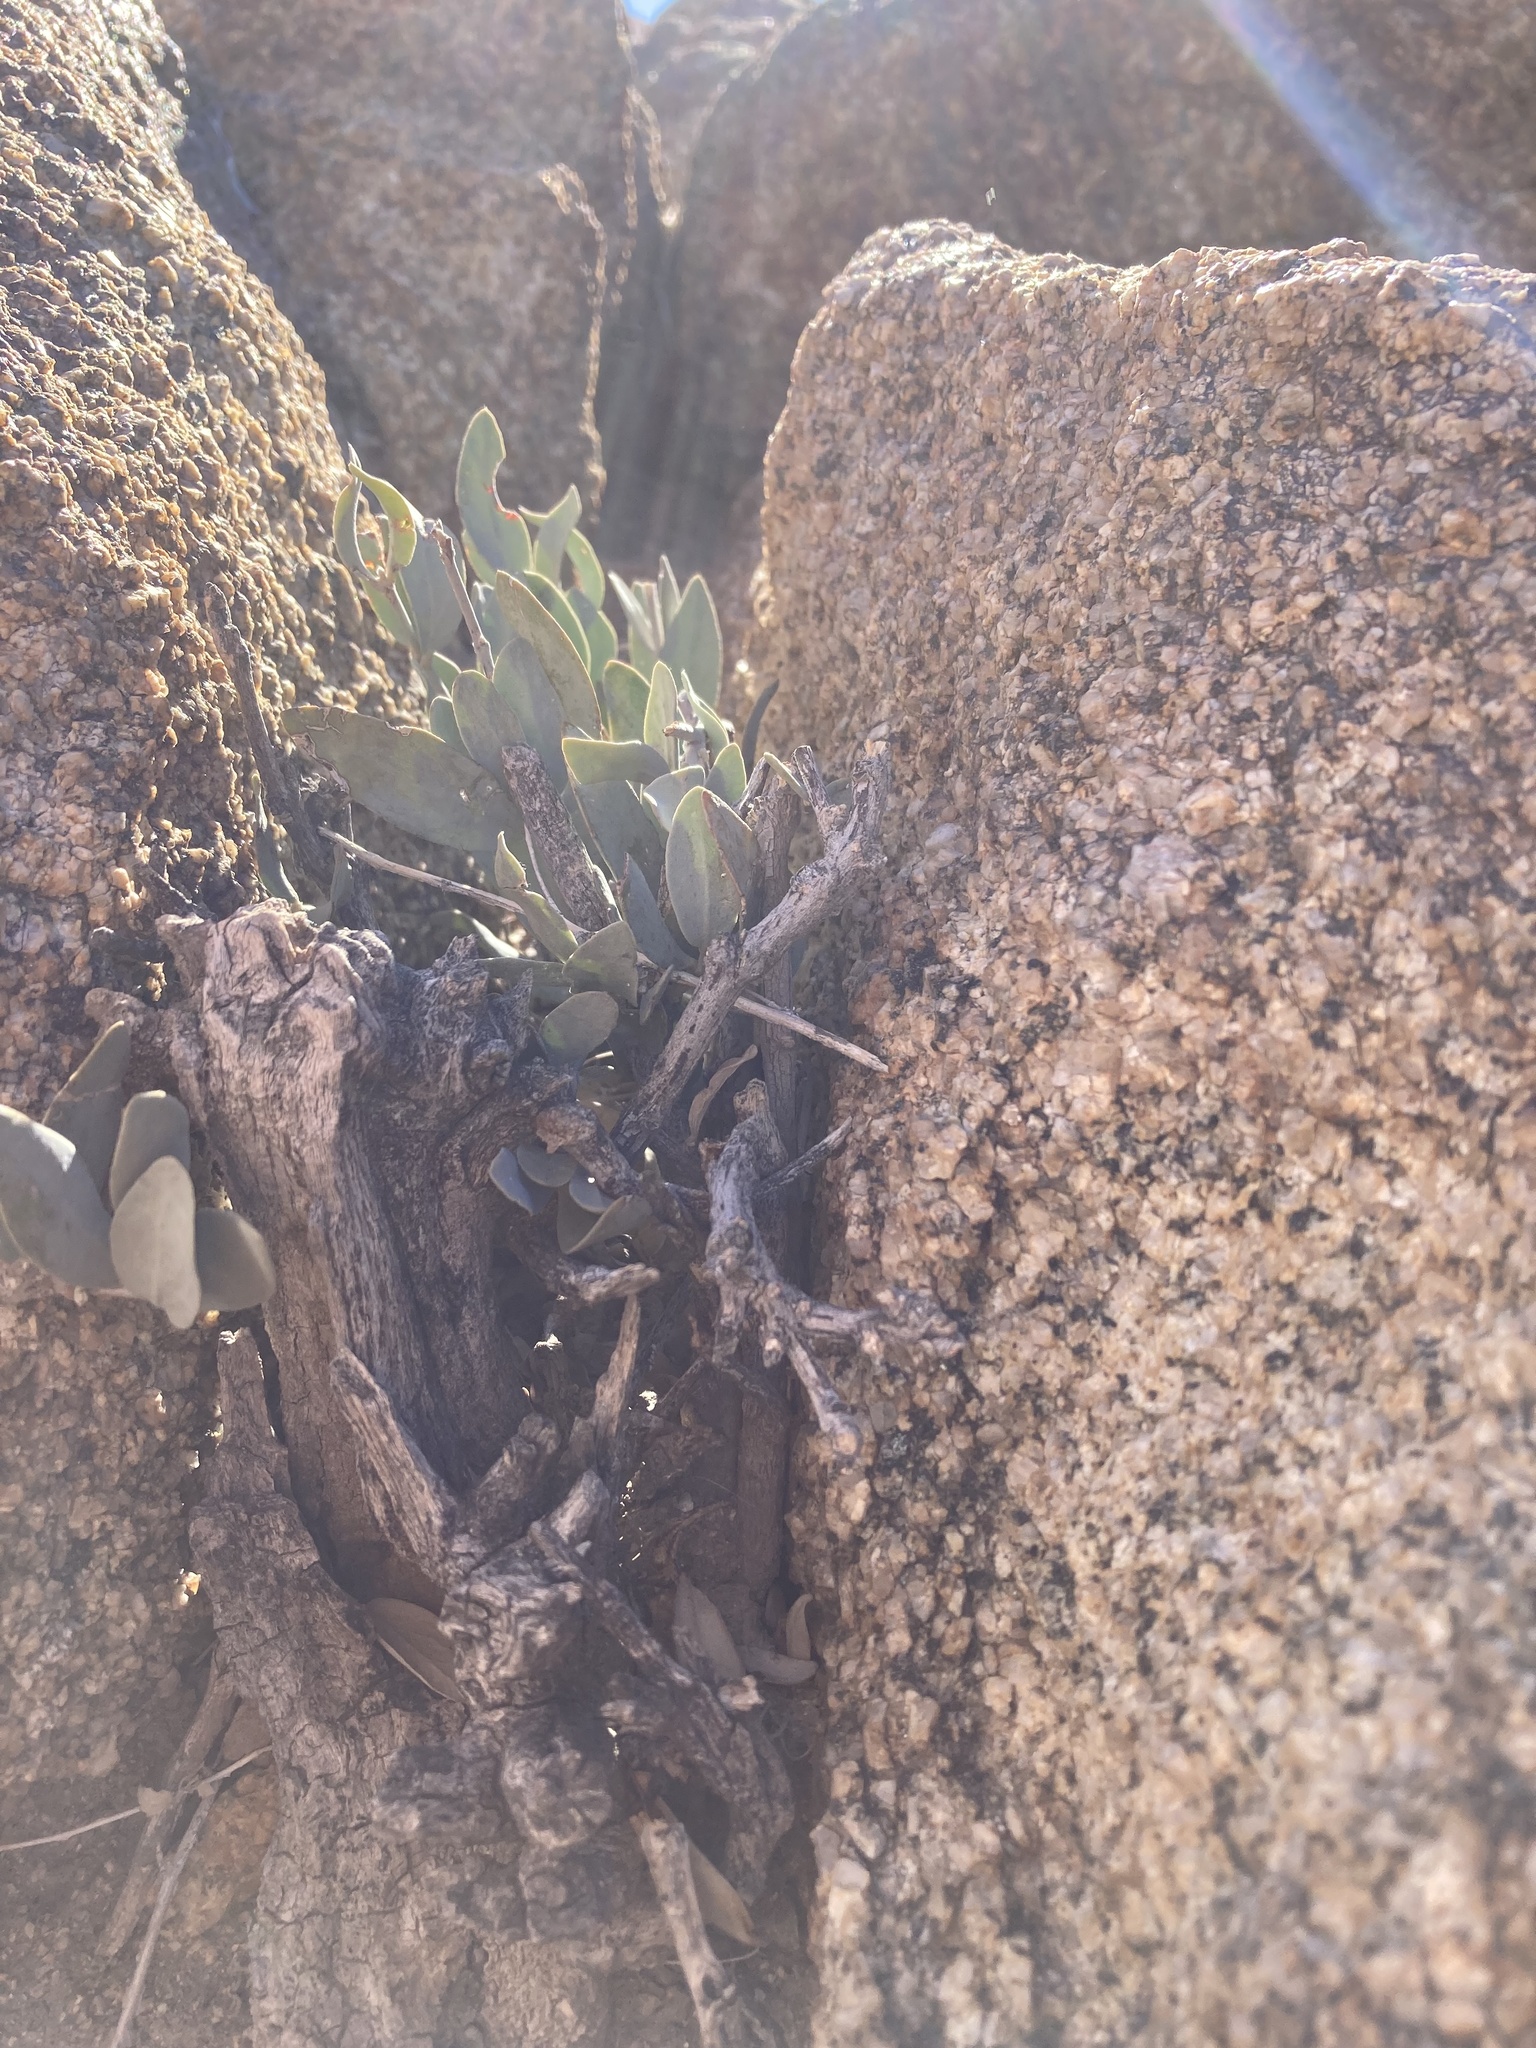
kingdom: Plantae
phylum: Tracheophyta
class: Magnoliopsida
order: Caryophyllales
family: Simmondsiaceae
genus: Simmondsia
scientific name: Simmondsia chinensis
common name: Jojoba
